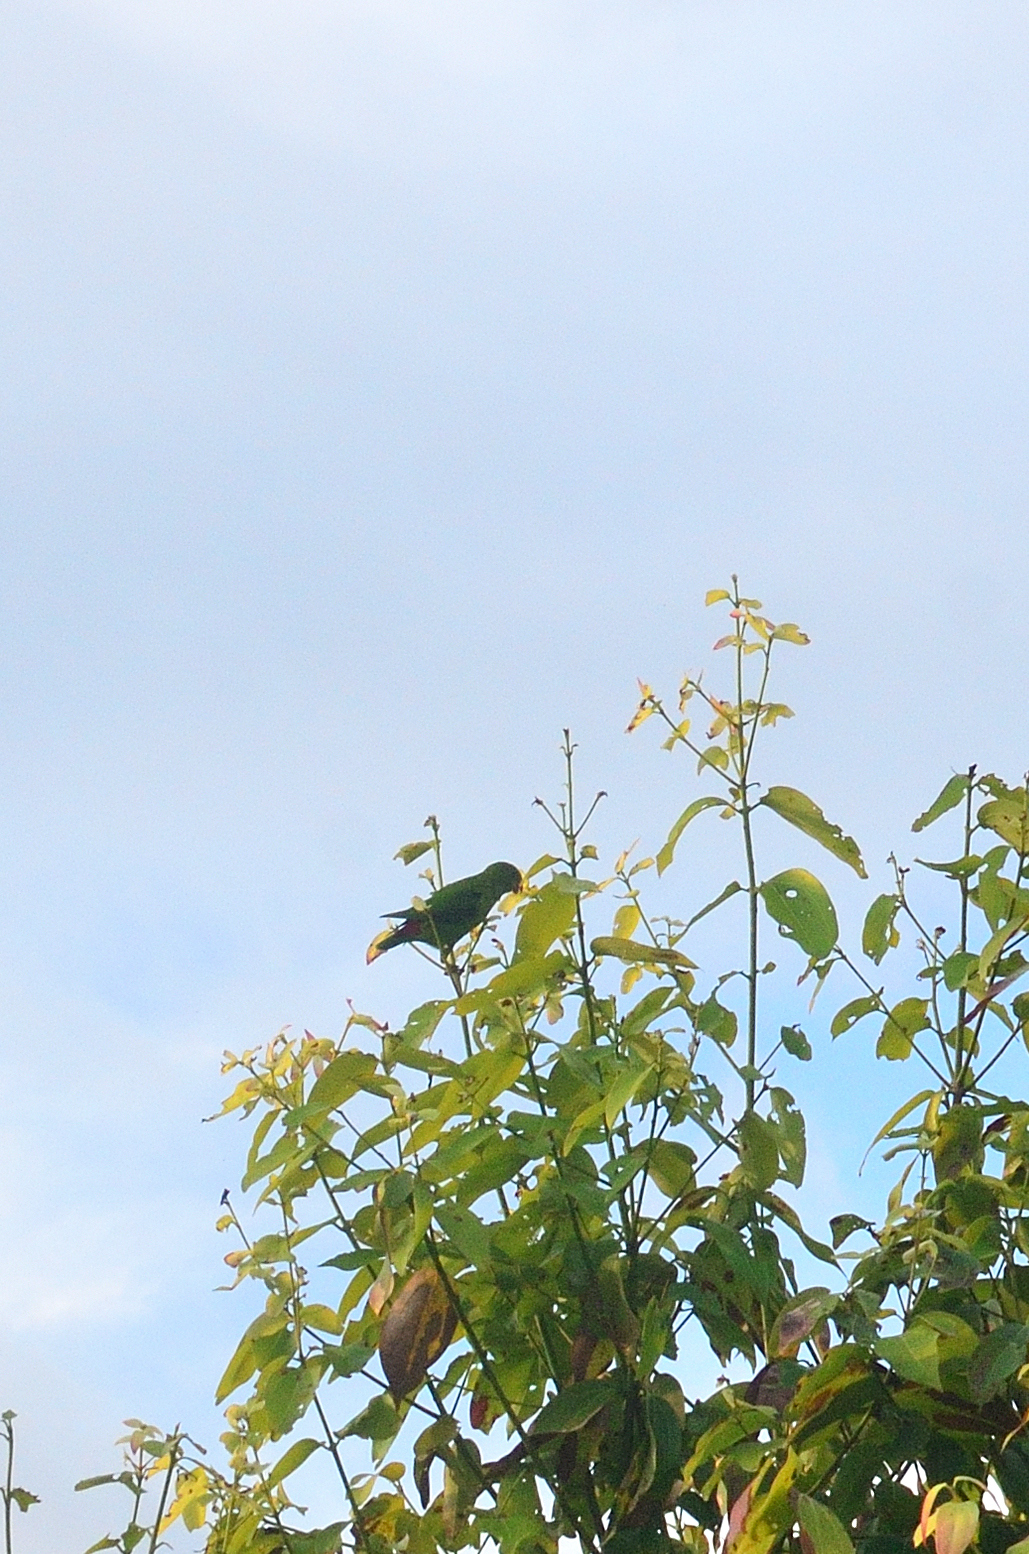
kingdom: Animalia
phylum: Chordata
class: Aves
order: Psittaciformes
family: Psittacidae
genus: Loriculus
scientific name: Loriculus vernalis
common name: Vernal hanging parrot
